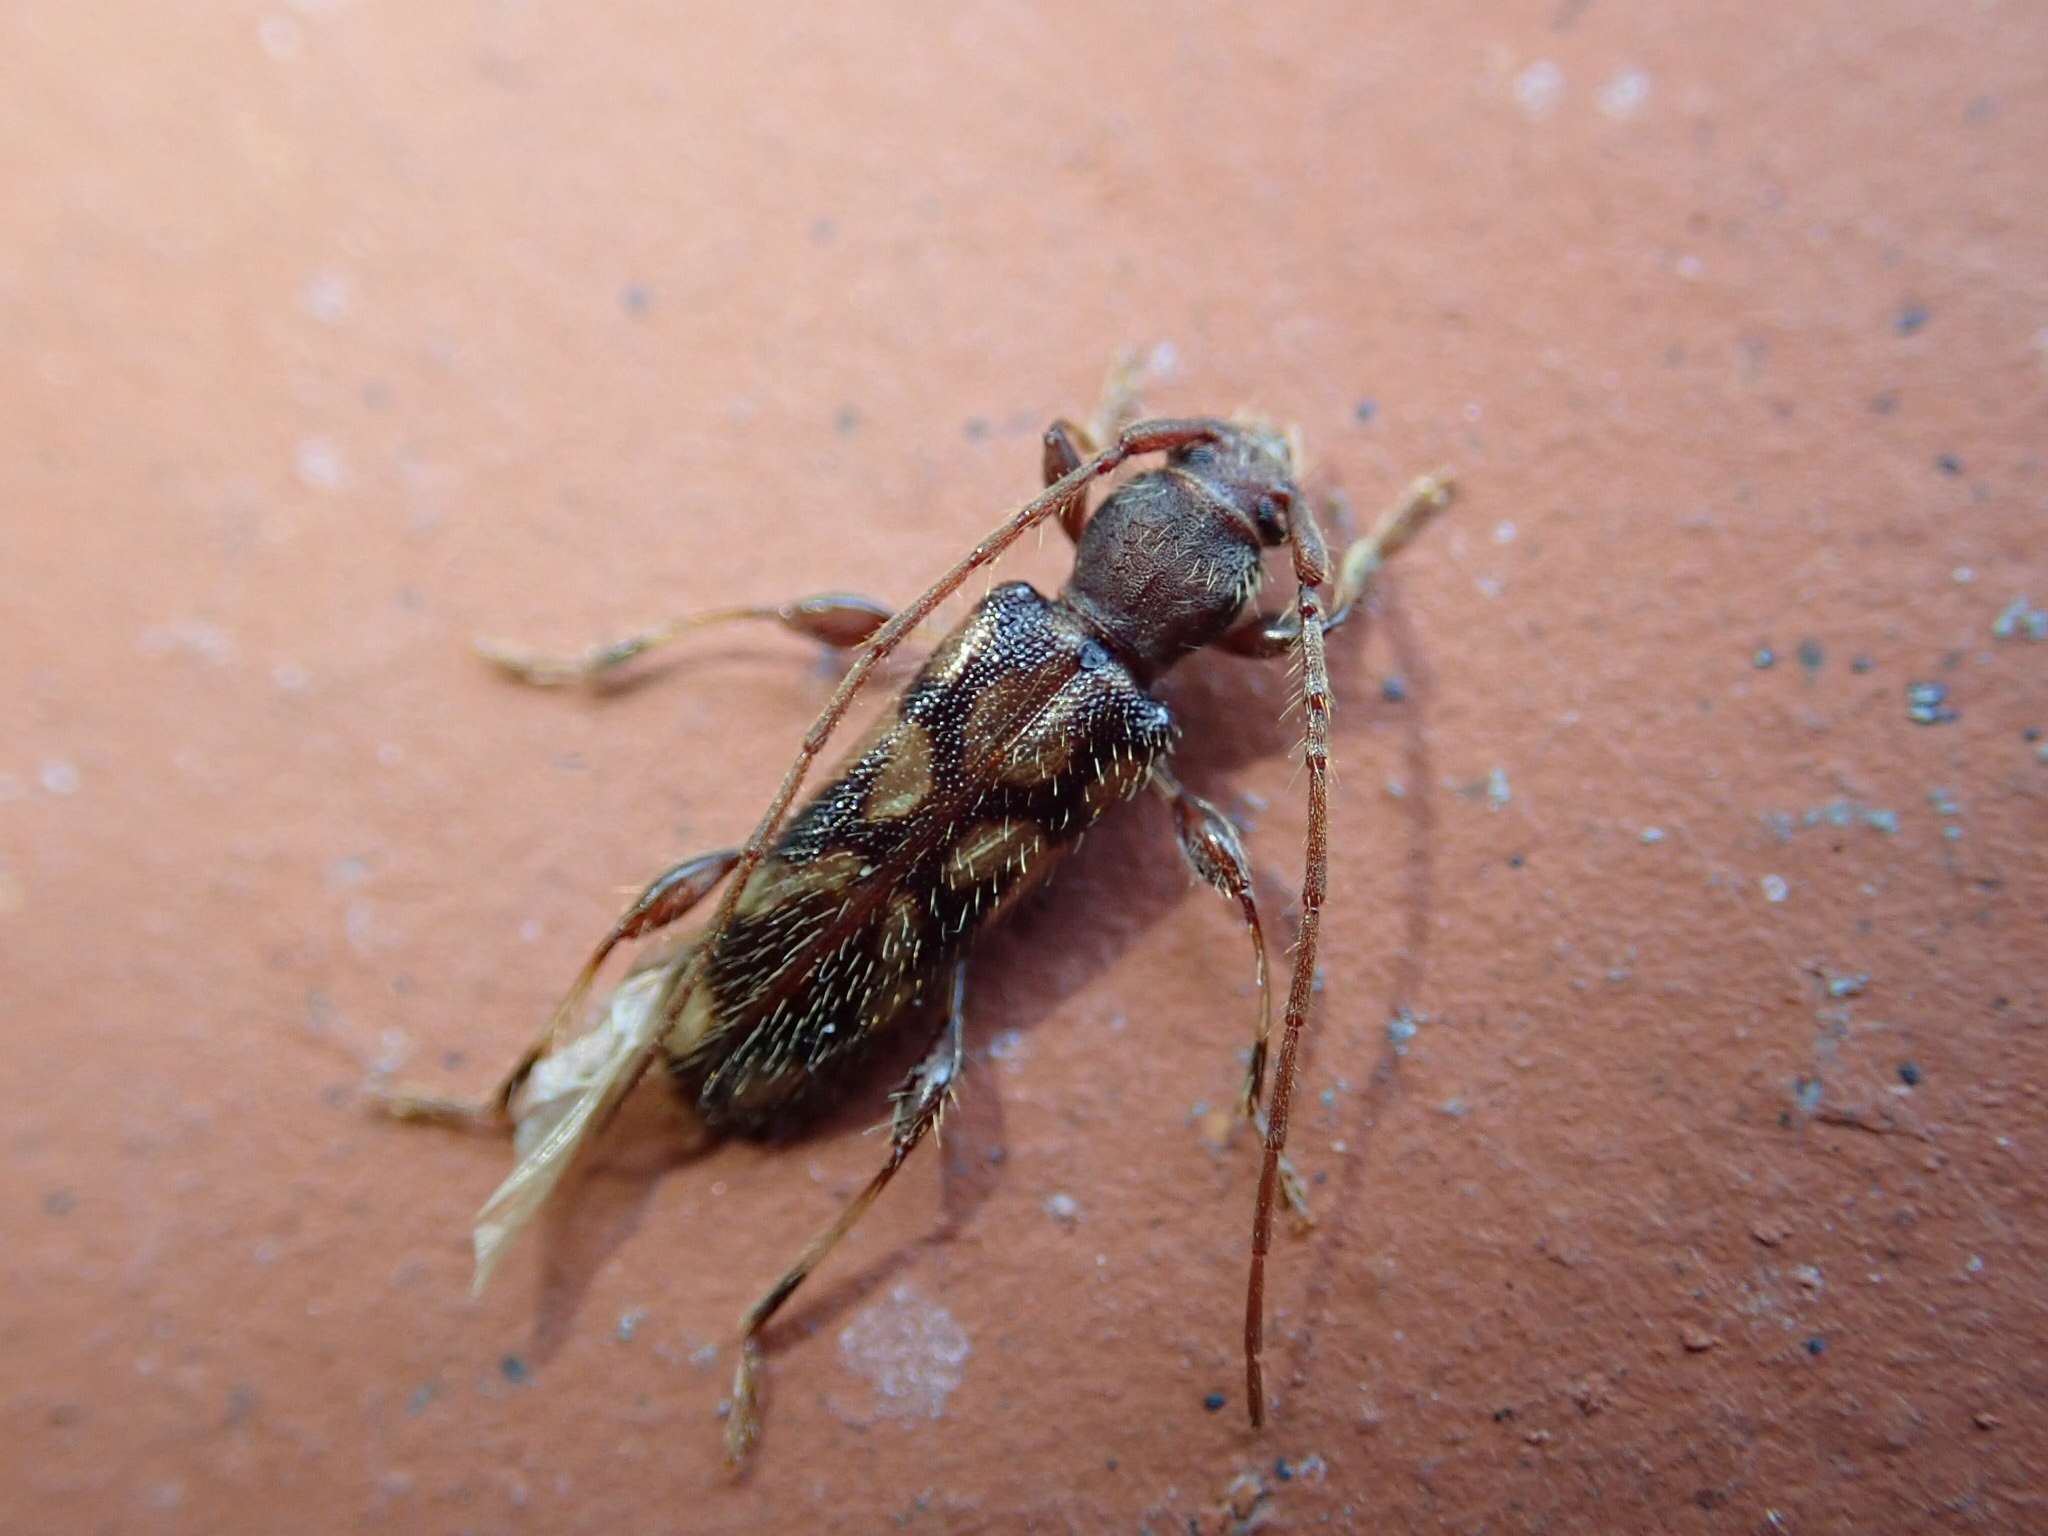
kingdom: Animalia
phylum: Arthropoda
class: Insecta
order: Coleoptera
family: Cerambycidae
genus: Bethelium
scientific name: Bethelium signiferum
